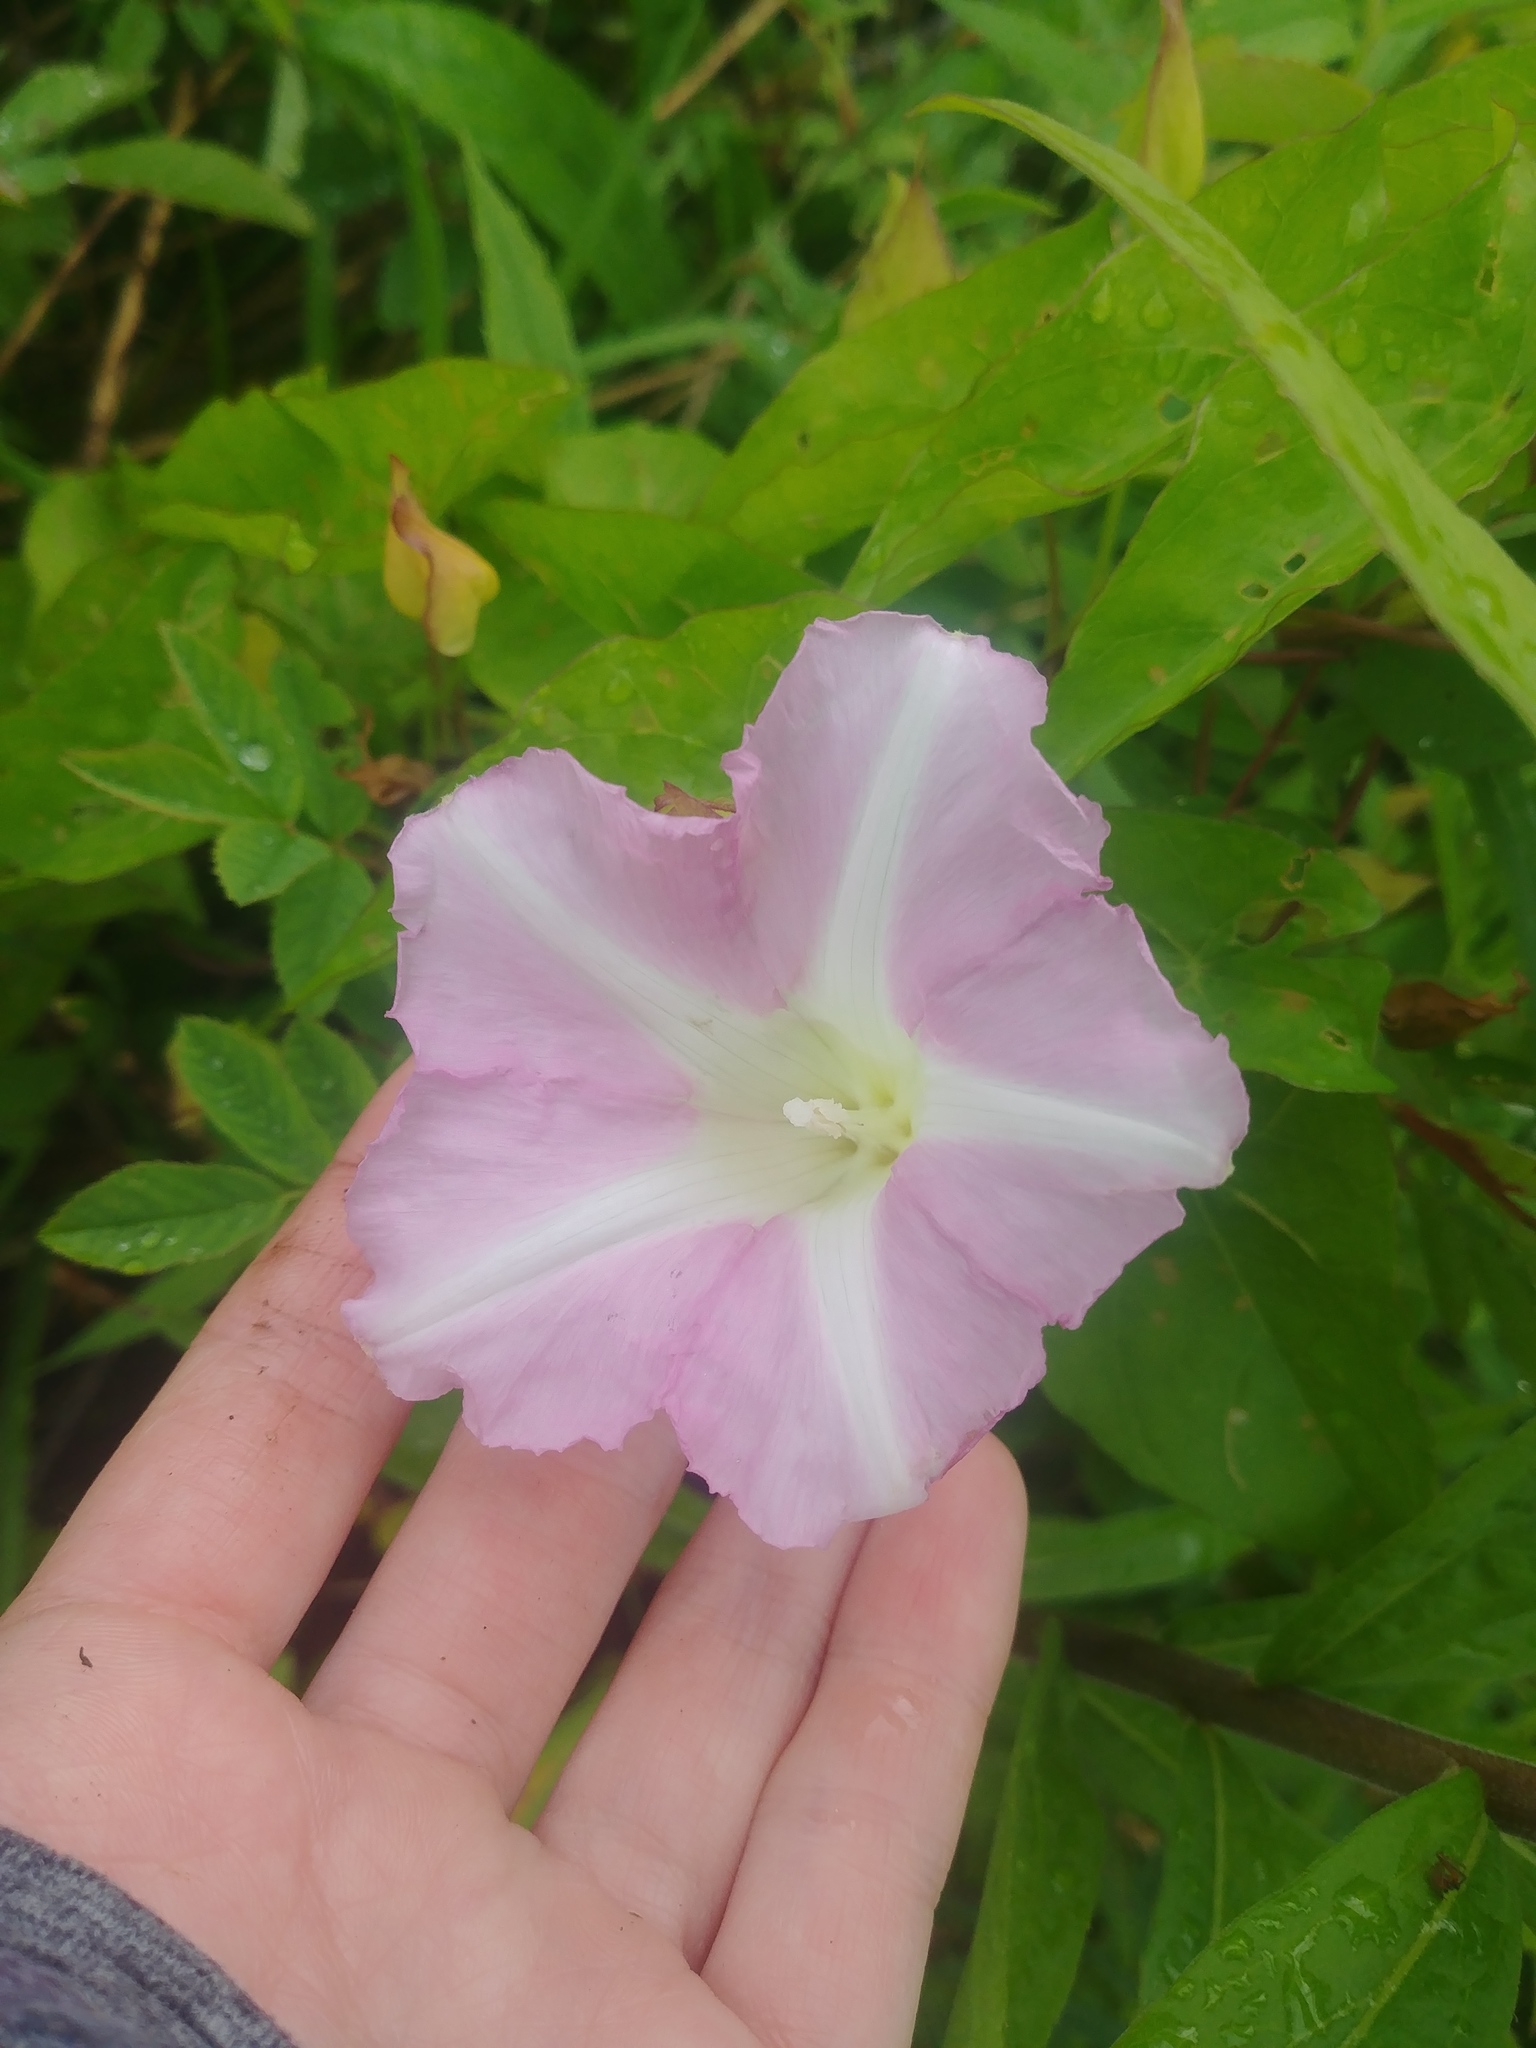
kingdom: Plantae
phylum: Tracheophyta
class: Magnoliopsida
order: Solanales
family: Convolvulaceae
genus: Calystegia
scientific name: Calystegia sepium
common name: Hedge bindweed
